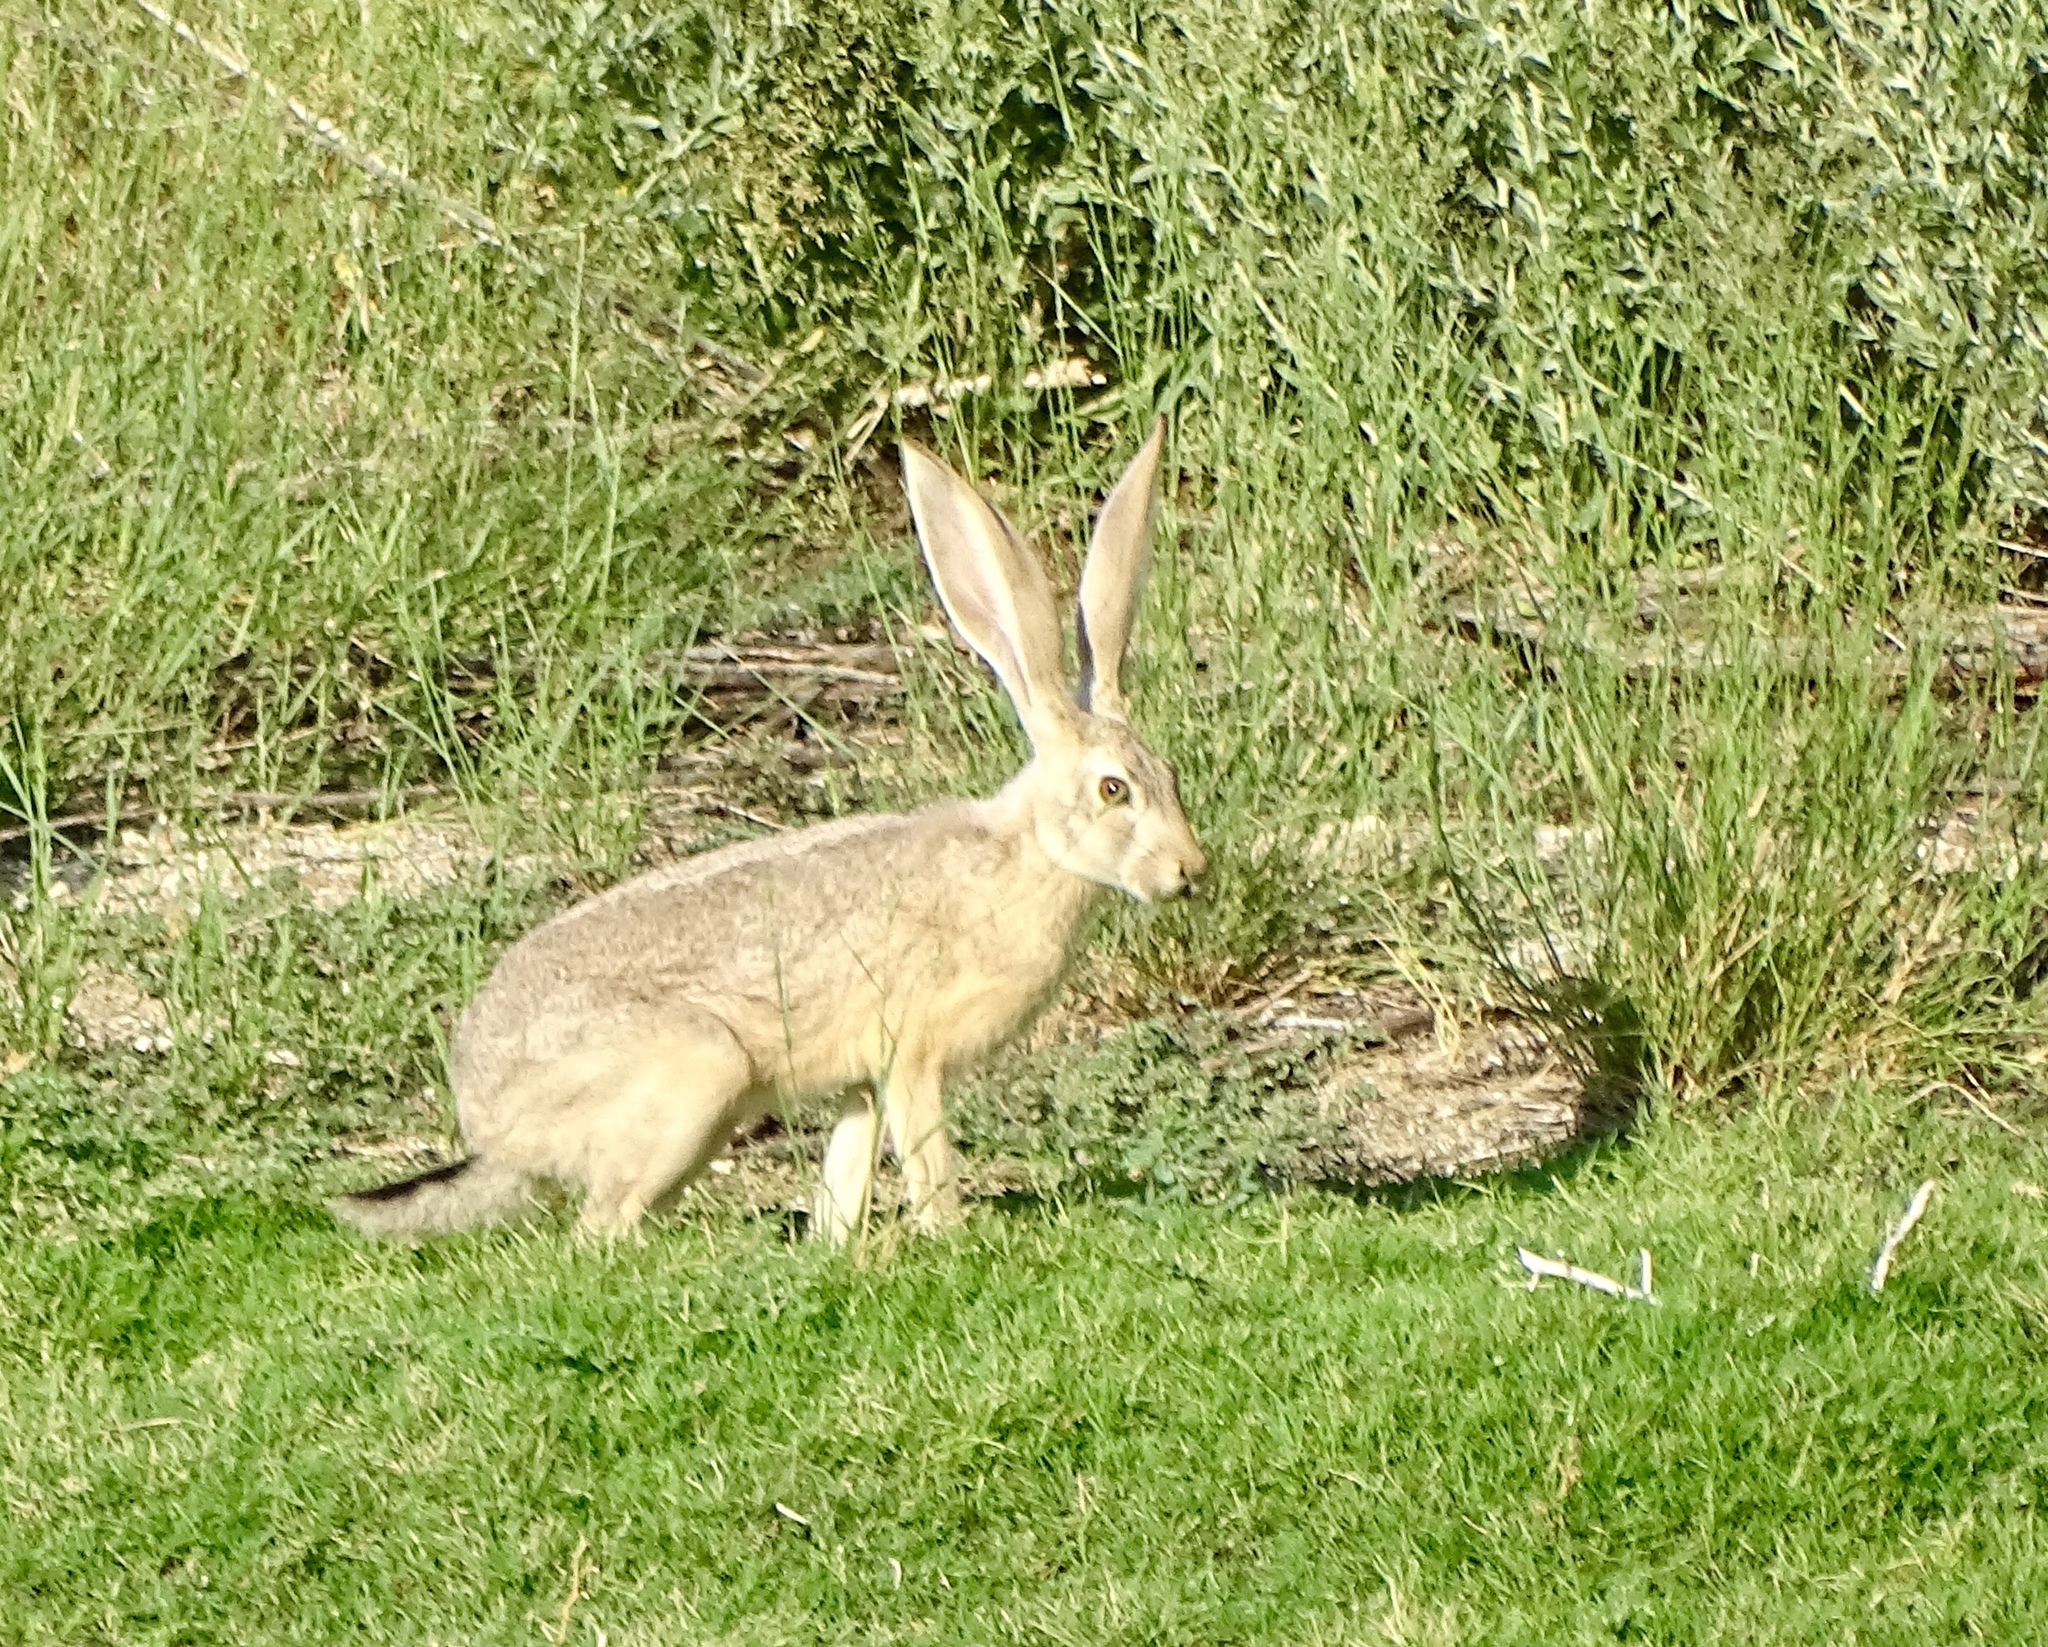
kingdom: Animalia
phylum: Chordata
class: Mammalia
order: Lagomorpha
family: Leporidae
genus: Lepus
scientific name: Lepus californicus
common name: Black-tailed jackrabbit
